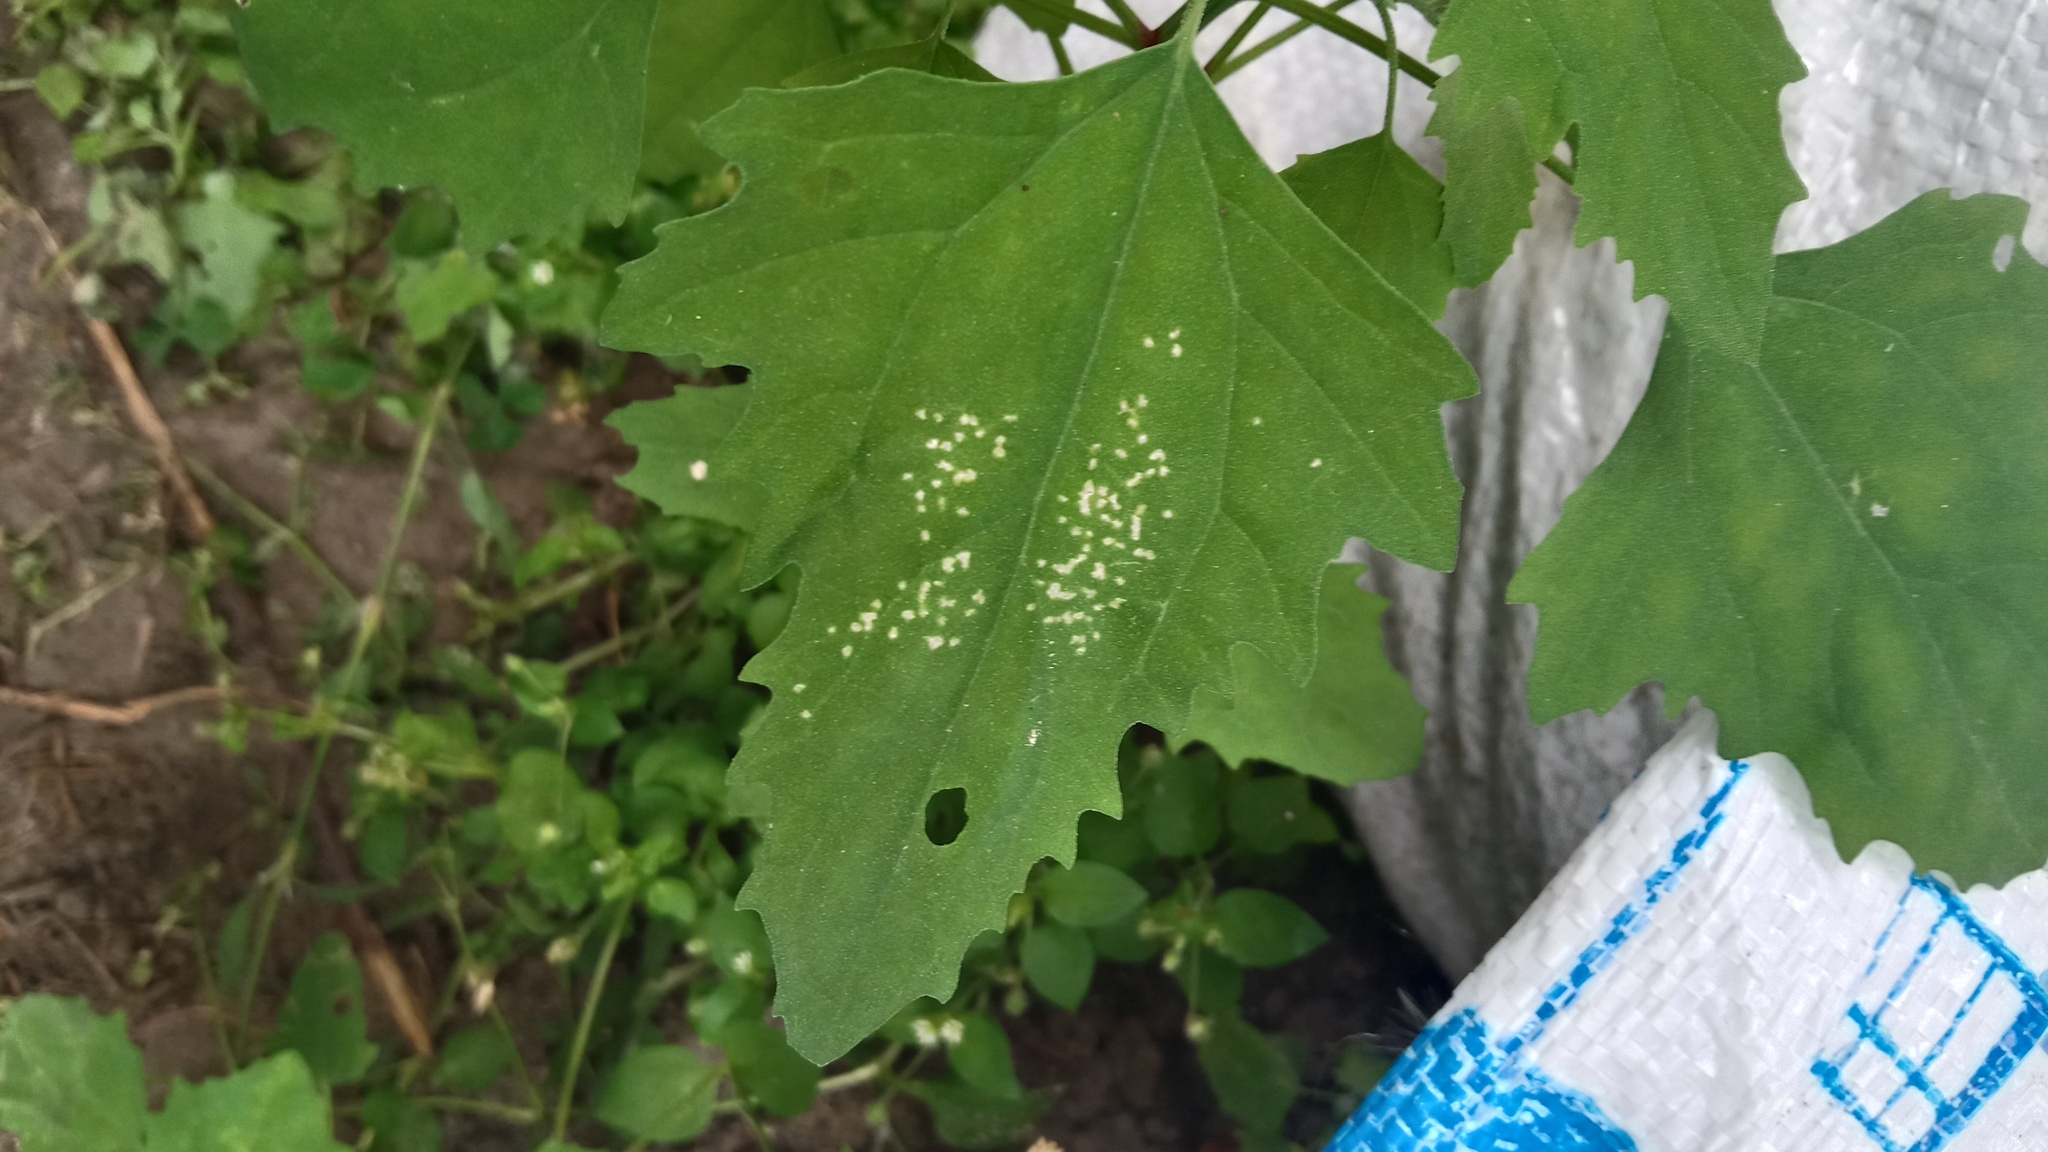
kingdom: Plantae
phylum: Tracheophyta
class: Magnoliopsida
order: Caryophyllales
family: Amaranthaceae
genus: Chenopodium
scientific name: Chenopodium album
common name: Fat-hen
